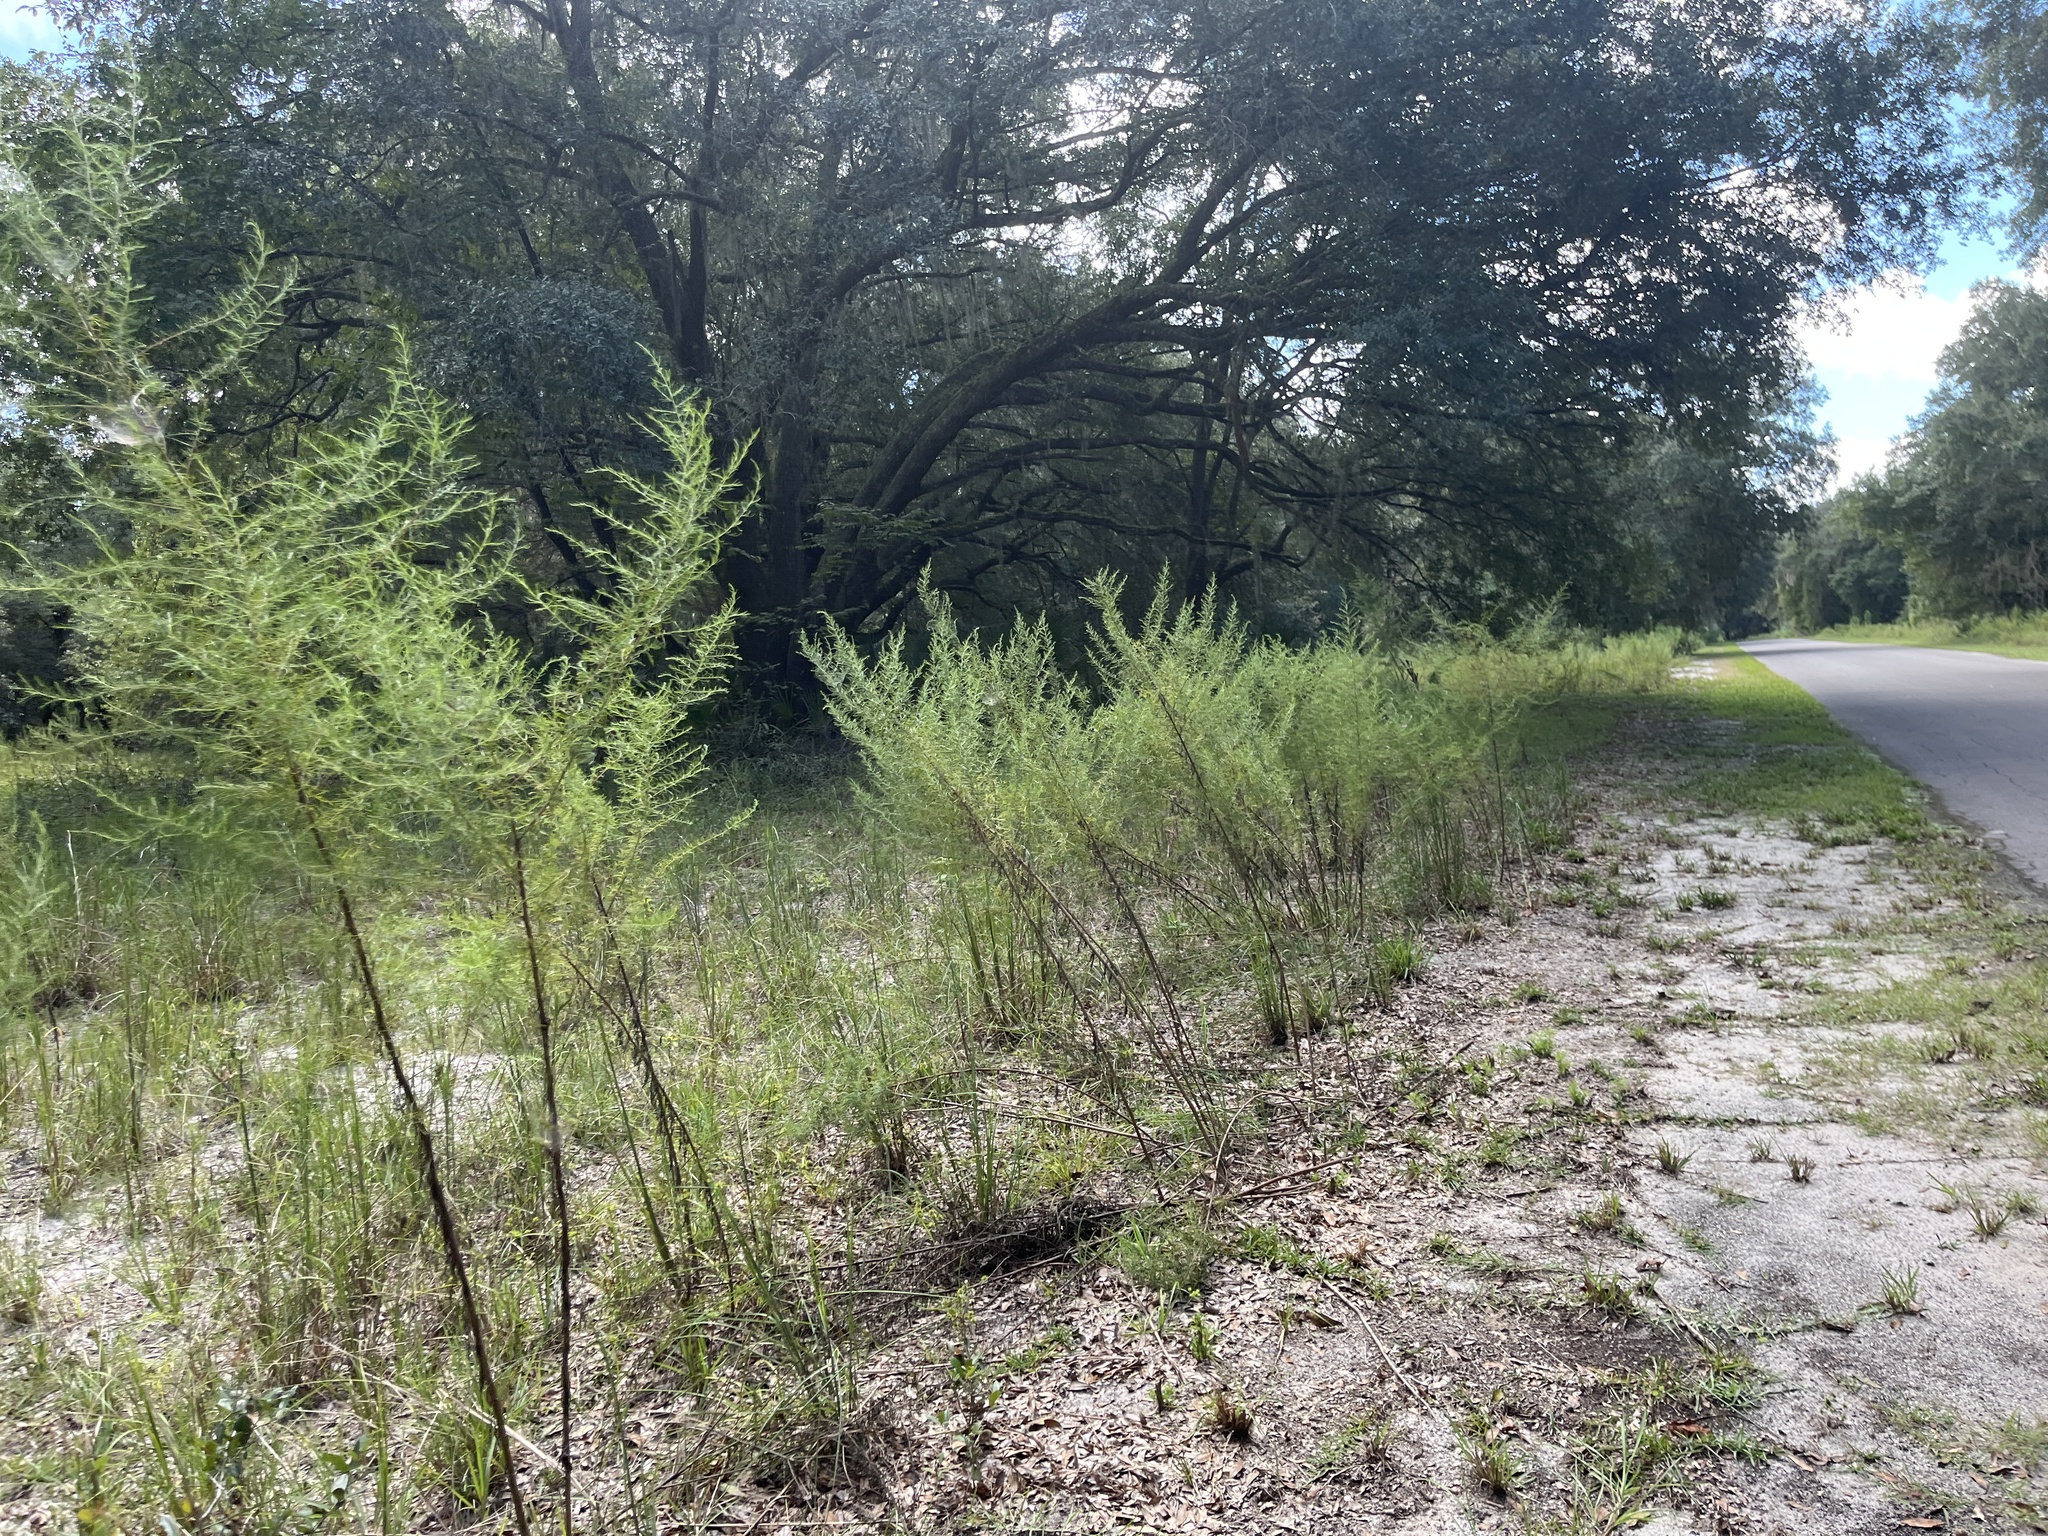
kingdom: Plantae
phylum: Tracheophyta
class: Magnoliopsida
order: Asterales
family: Asteraceae
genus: Eupatorium
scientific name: Eupatorium compositifolium
